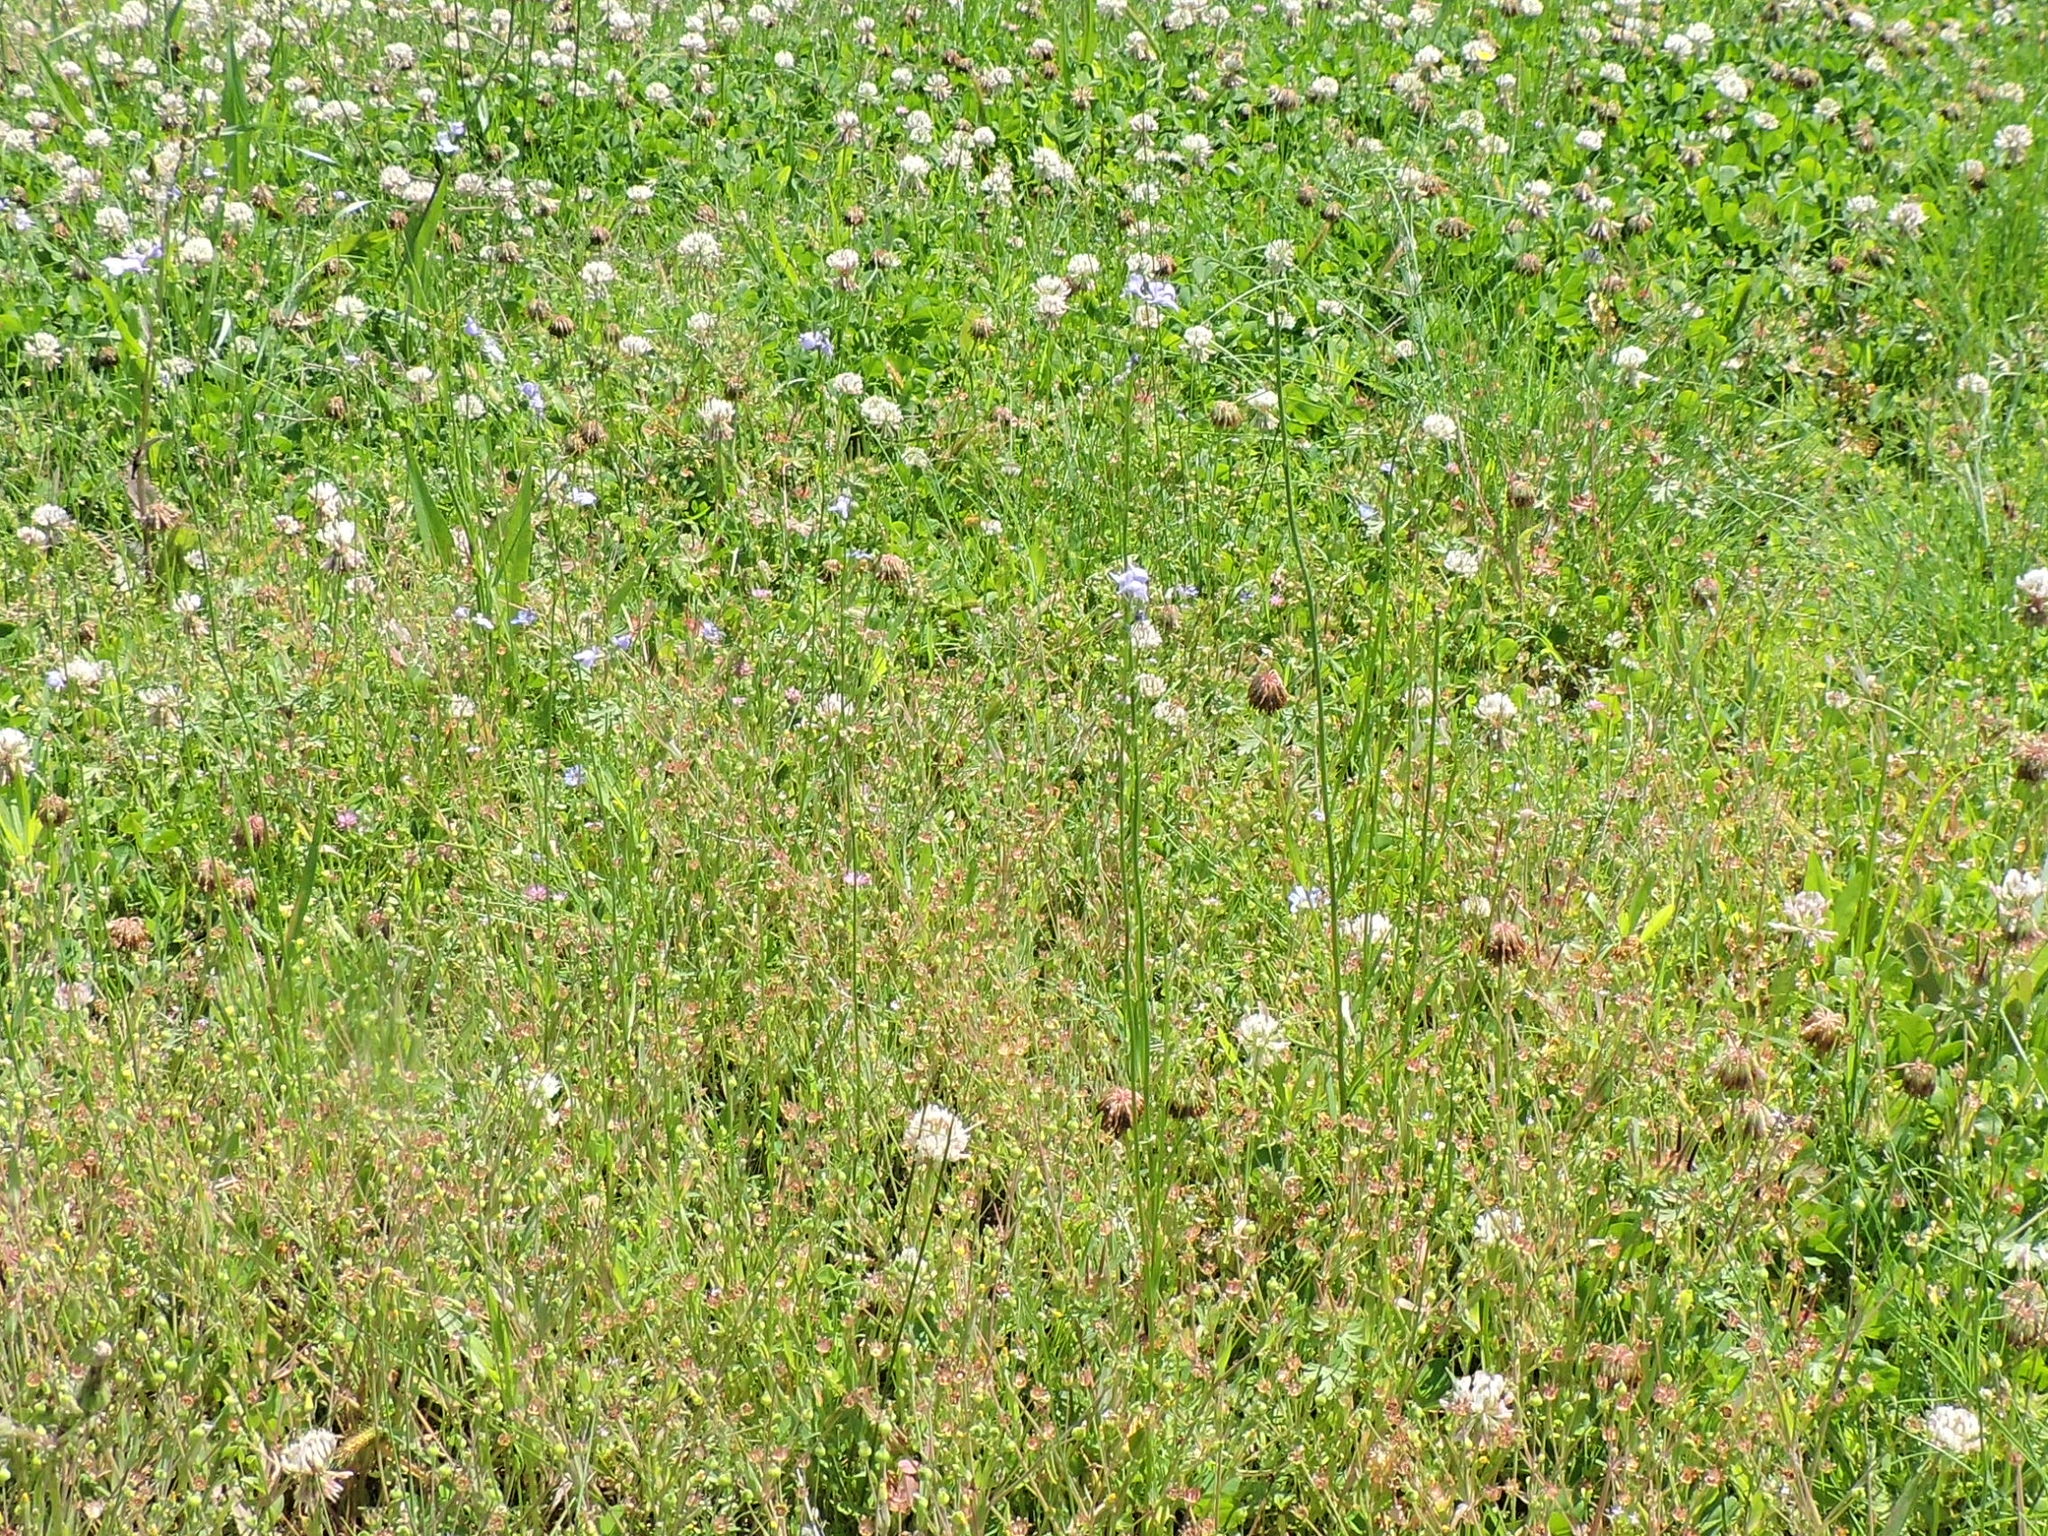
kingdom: Plantae
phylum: Tracheophyta
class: Magnoliopsida
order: Lamiales
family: Plantaginaceae
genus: Nuttallanthus
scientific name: Nuttallanthus texanus
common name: Texas toadflax
